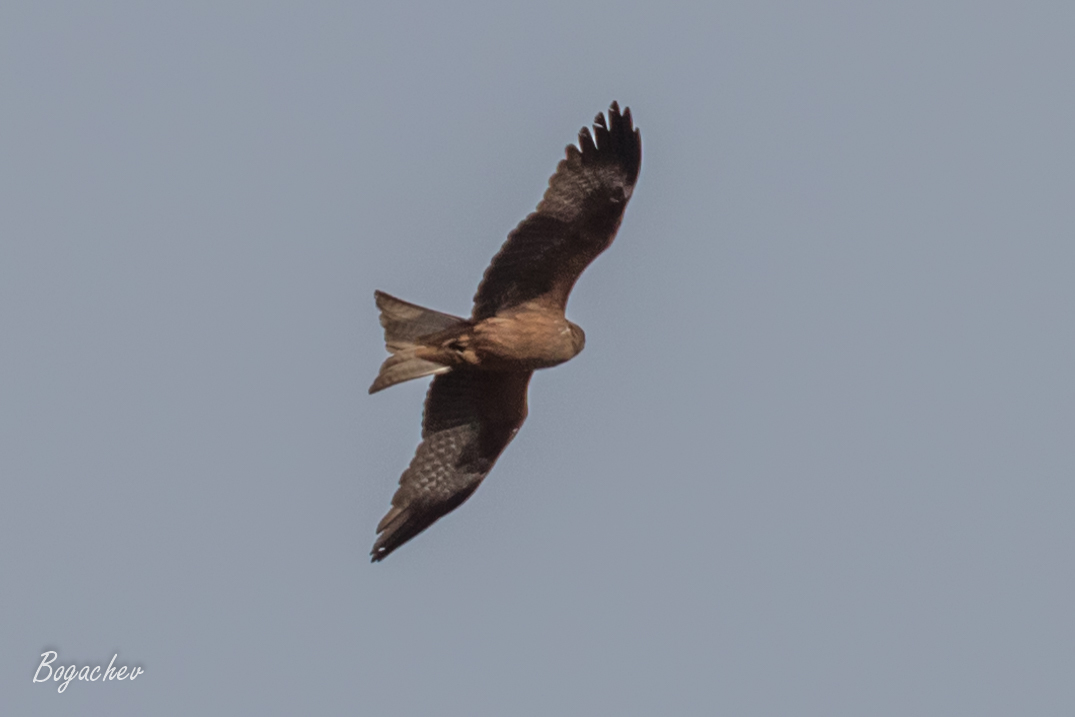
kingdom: Animalia
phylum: Chordata
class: Aves
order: Accipitriformes
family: Accipitridae
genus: Milvus
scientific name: Milvus migrans
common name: Black kite
